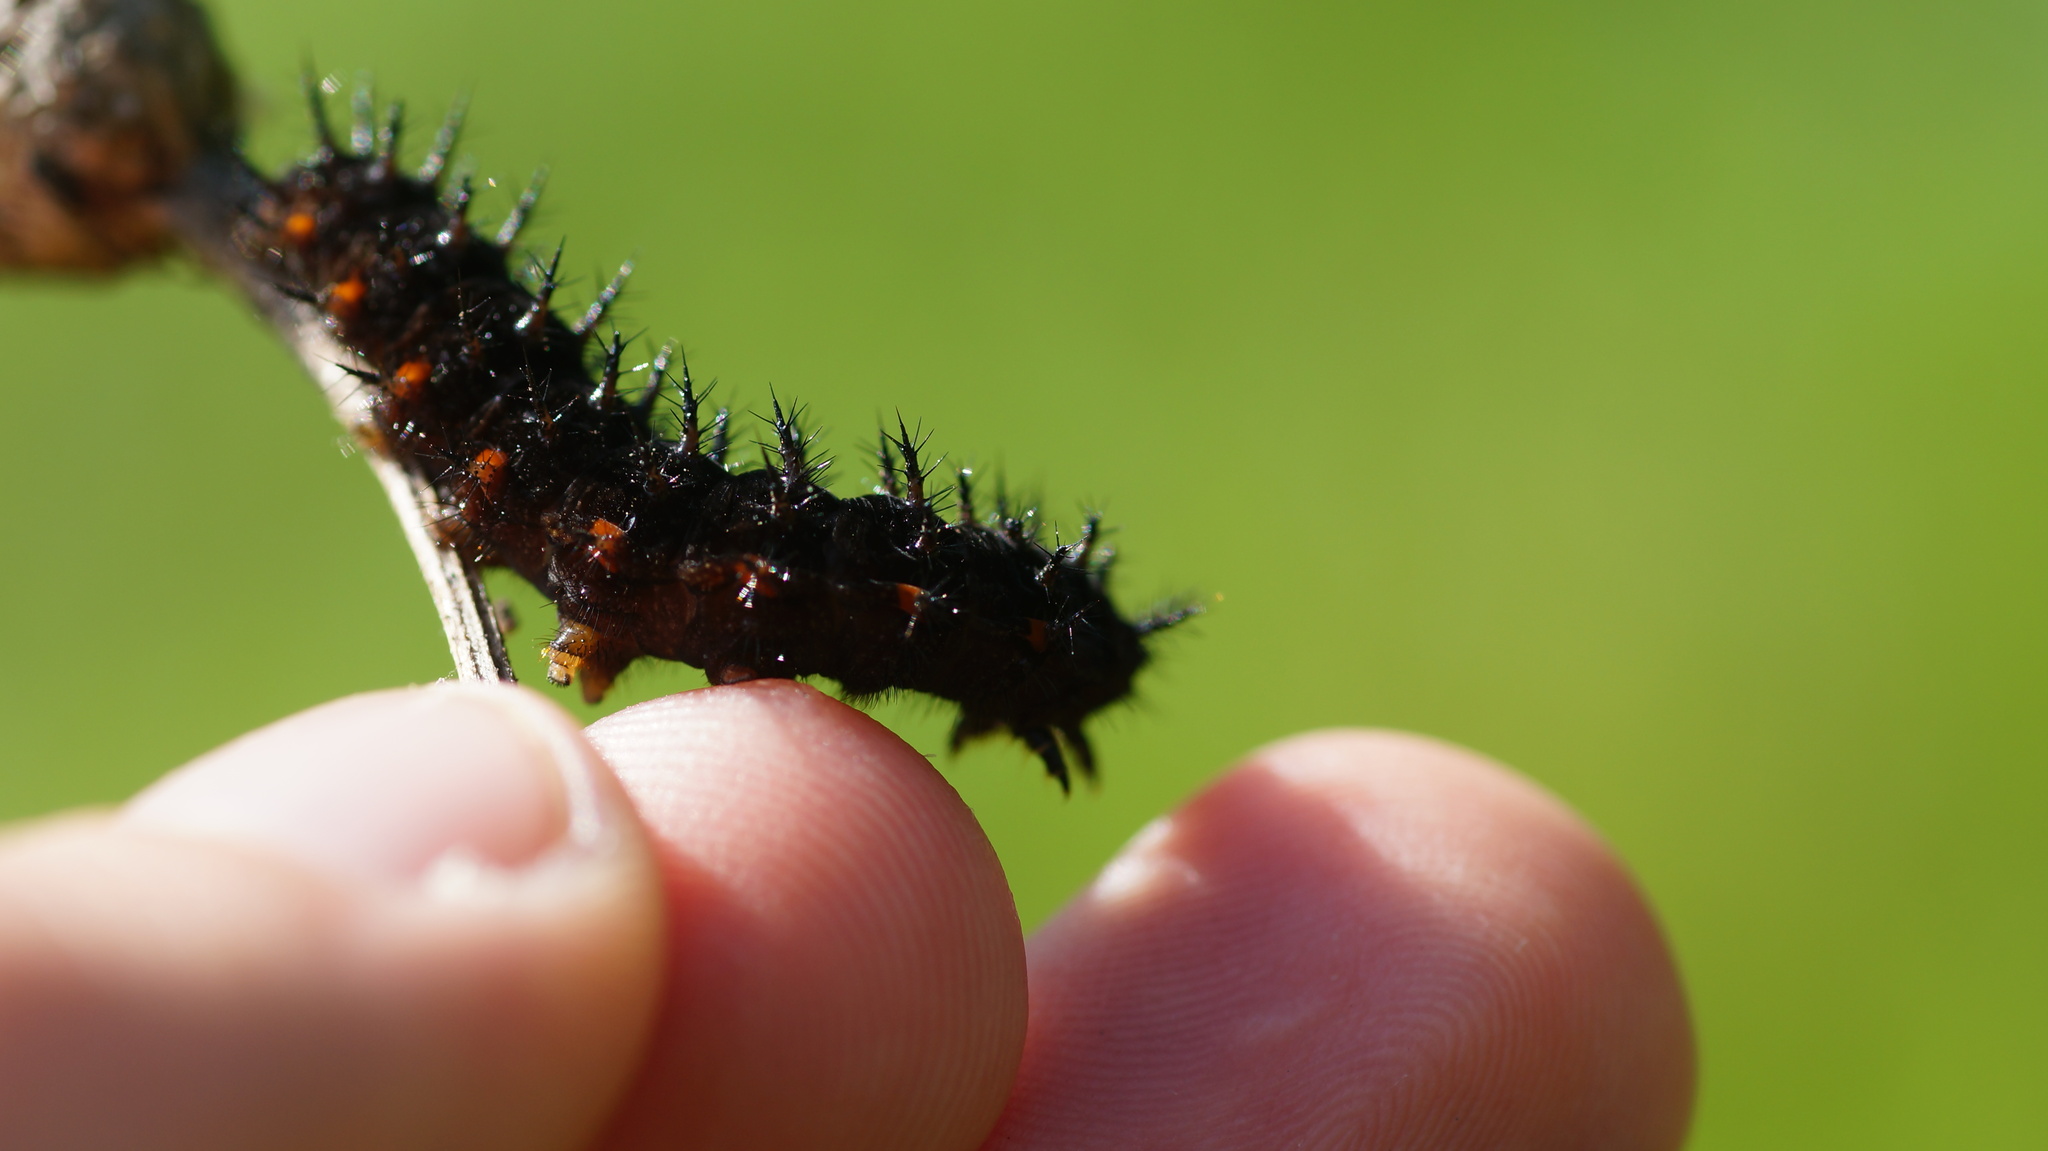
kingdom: Animalia
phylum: Arthropoda
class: Insecta
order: Lepidoptera
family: Nymphalidae
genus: Speyeria
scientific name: Speyeria aglaja
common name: Dark green fritillary
